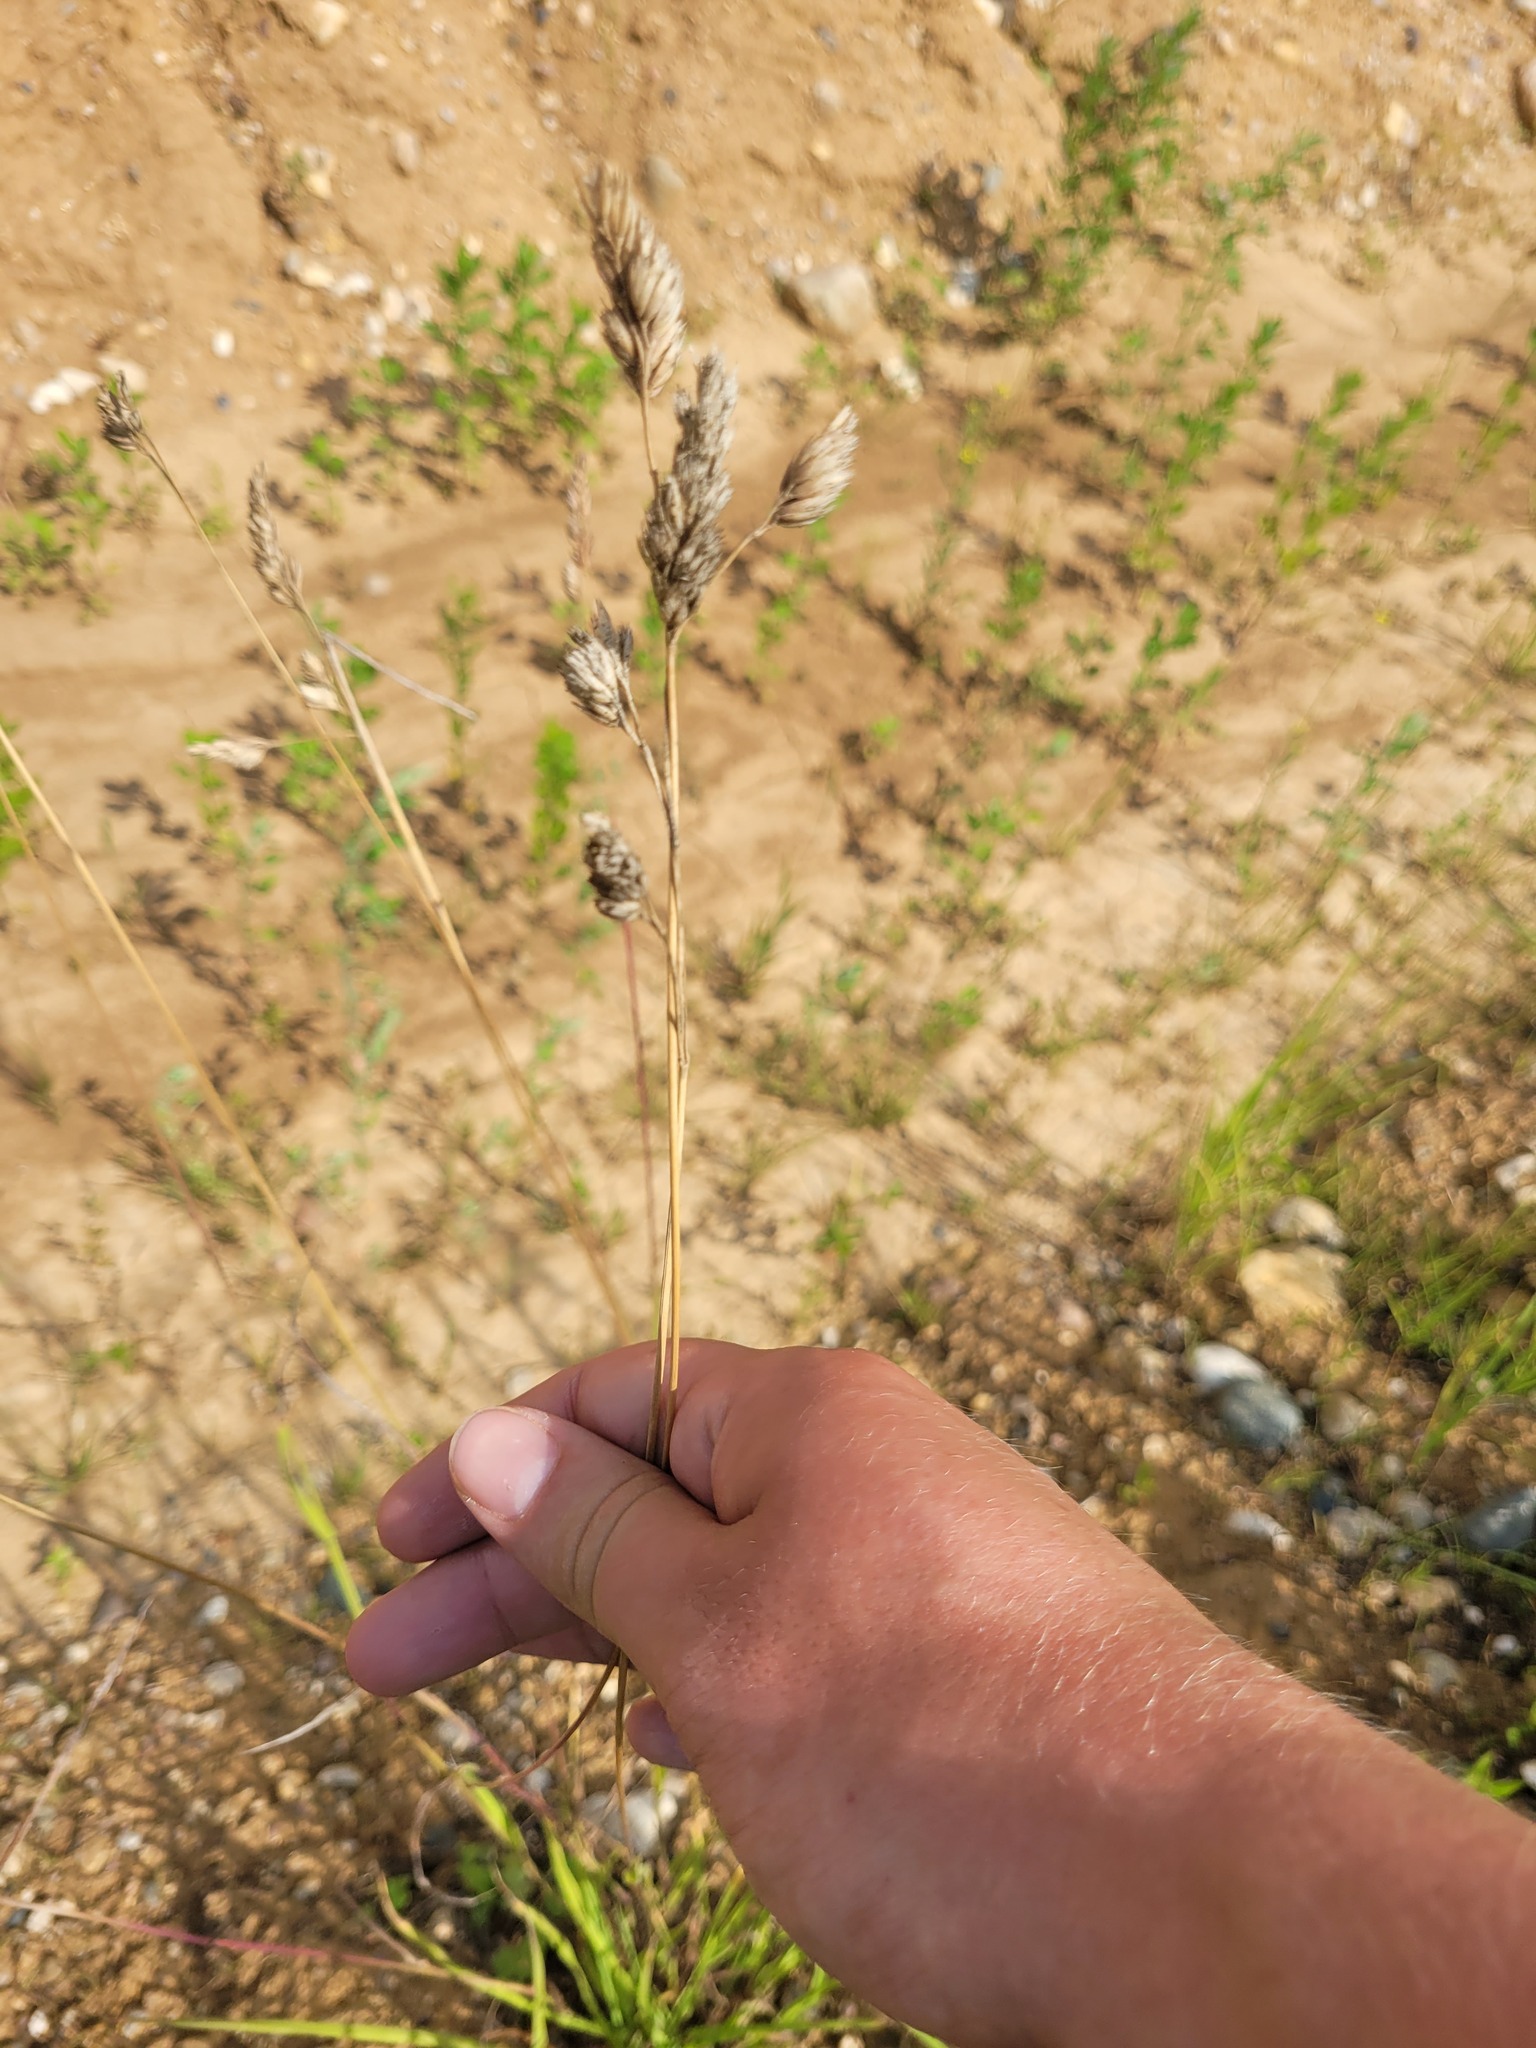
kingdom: Plantae
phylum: Tracheophyta
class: Liliopsida
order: Poales
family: Poaceae
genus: Dactylis
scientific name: Dactylis glomerata
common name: Orchardgrass
